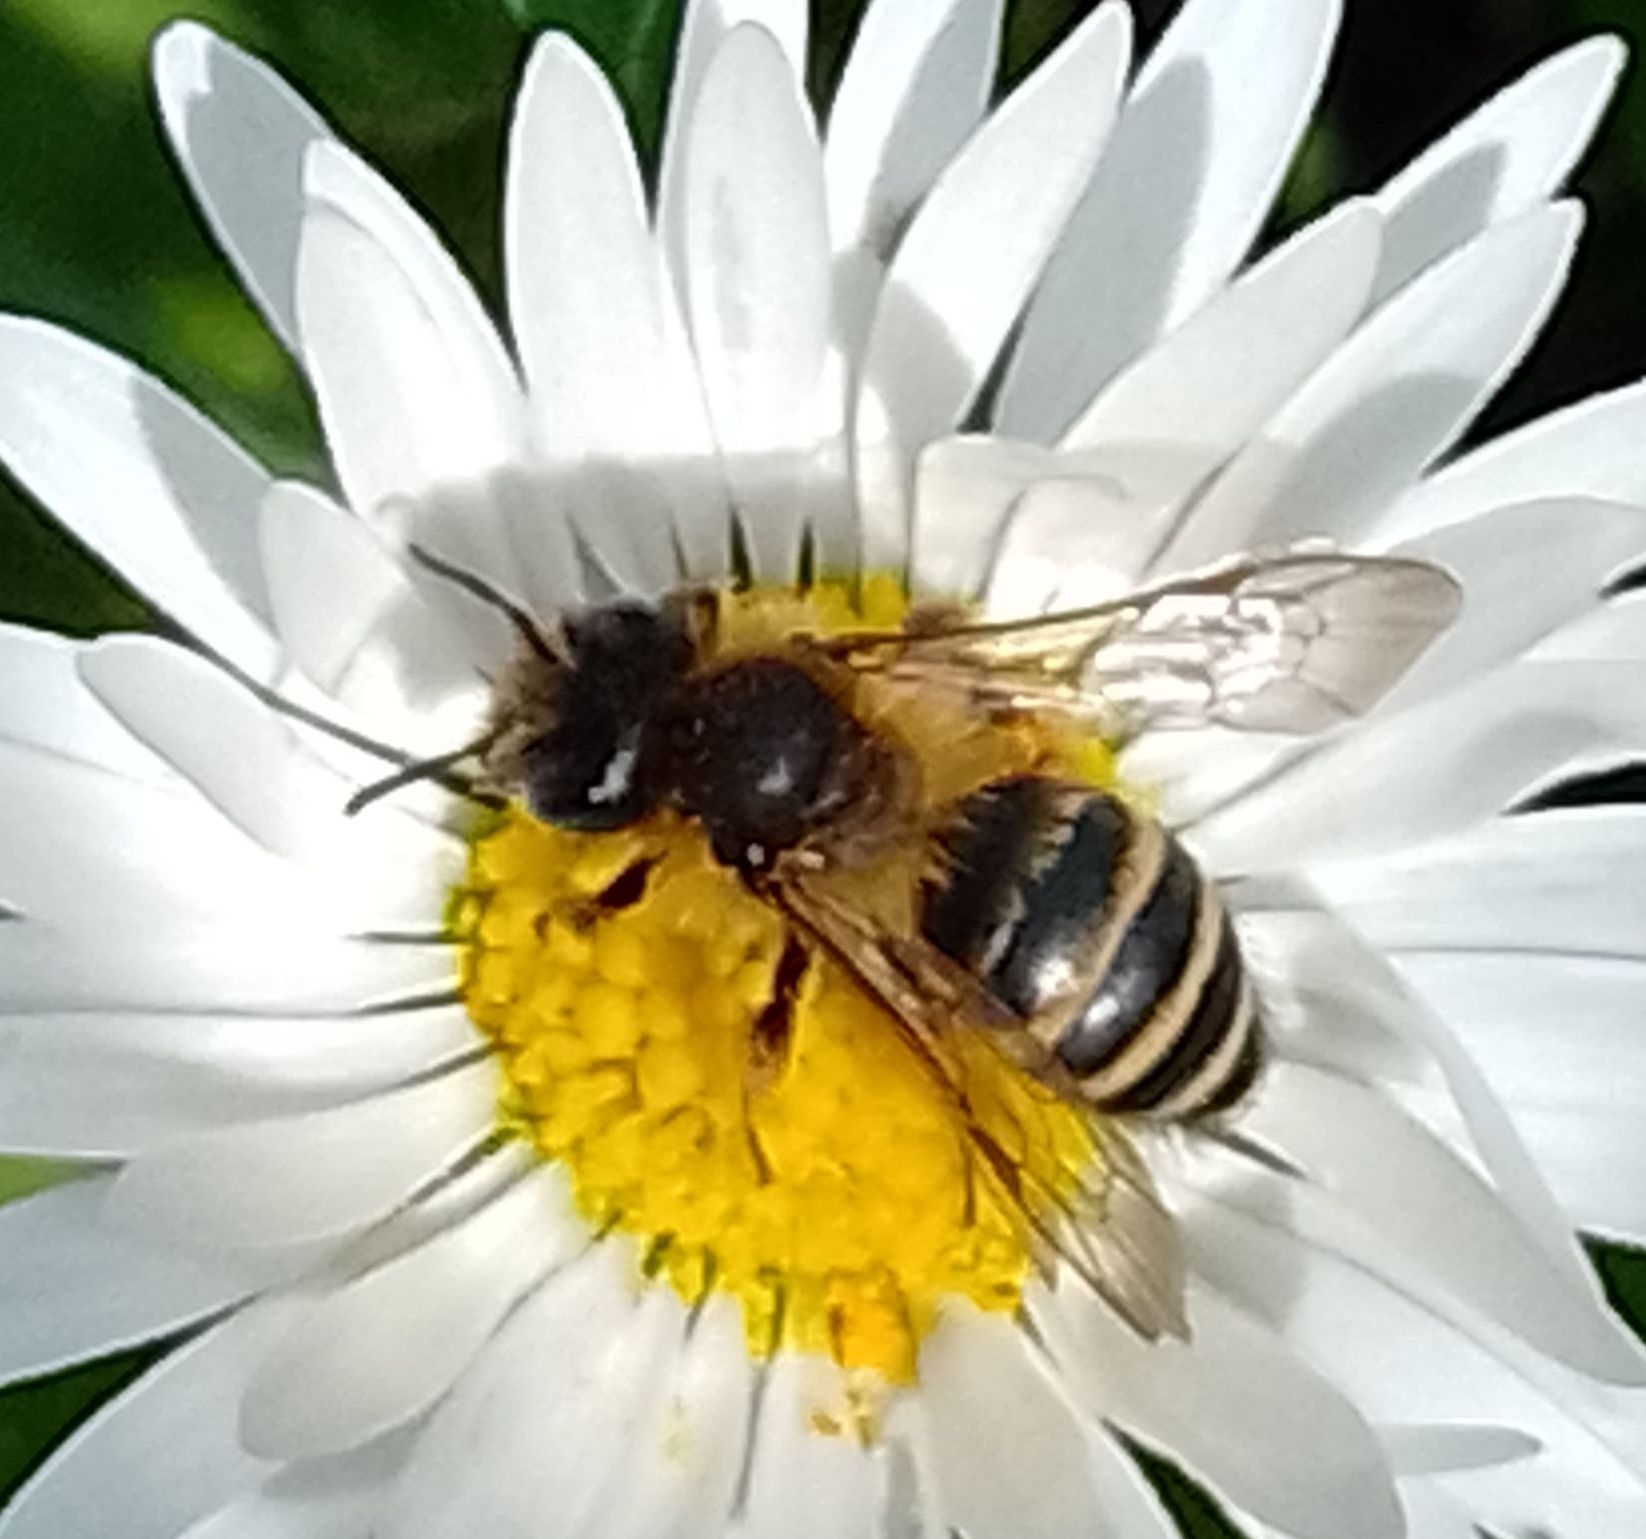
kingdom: Animalia
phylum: Arthropoda
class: Insecta
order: Hymenoptera
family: Andrenidae
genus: Andrena
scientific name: Andrena flavipes
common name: Yellow-legged mining bee
